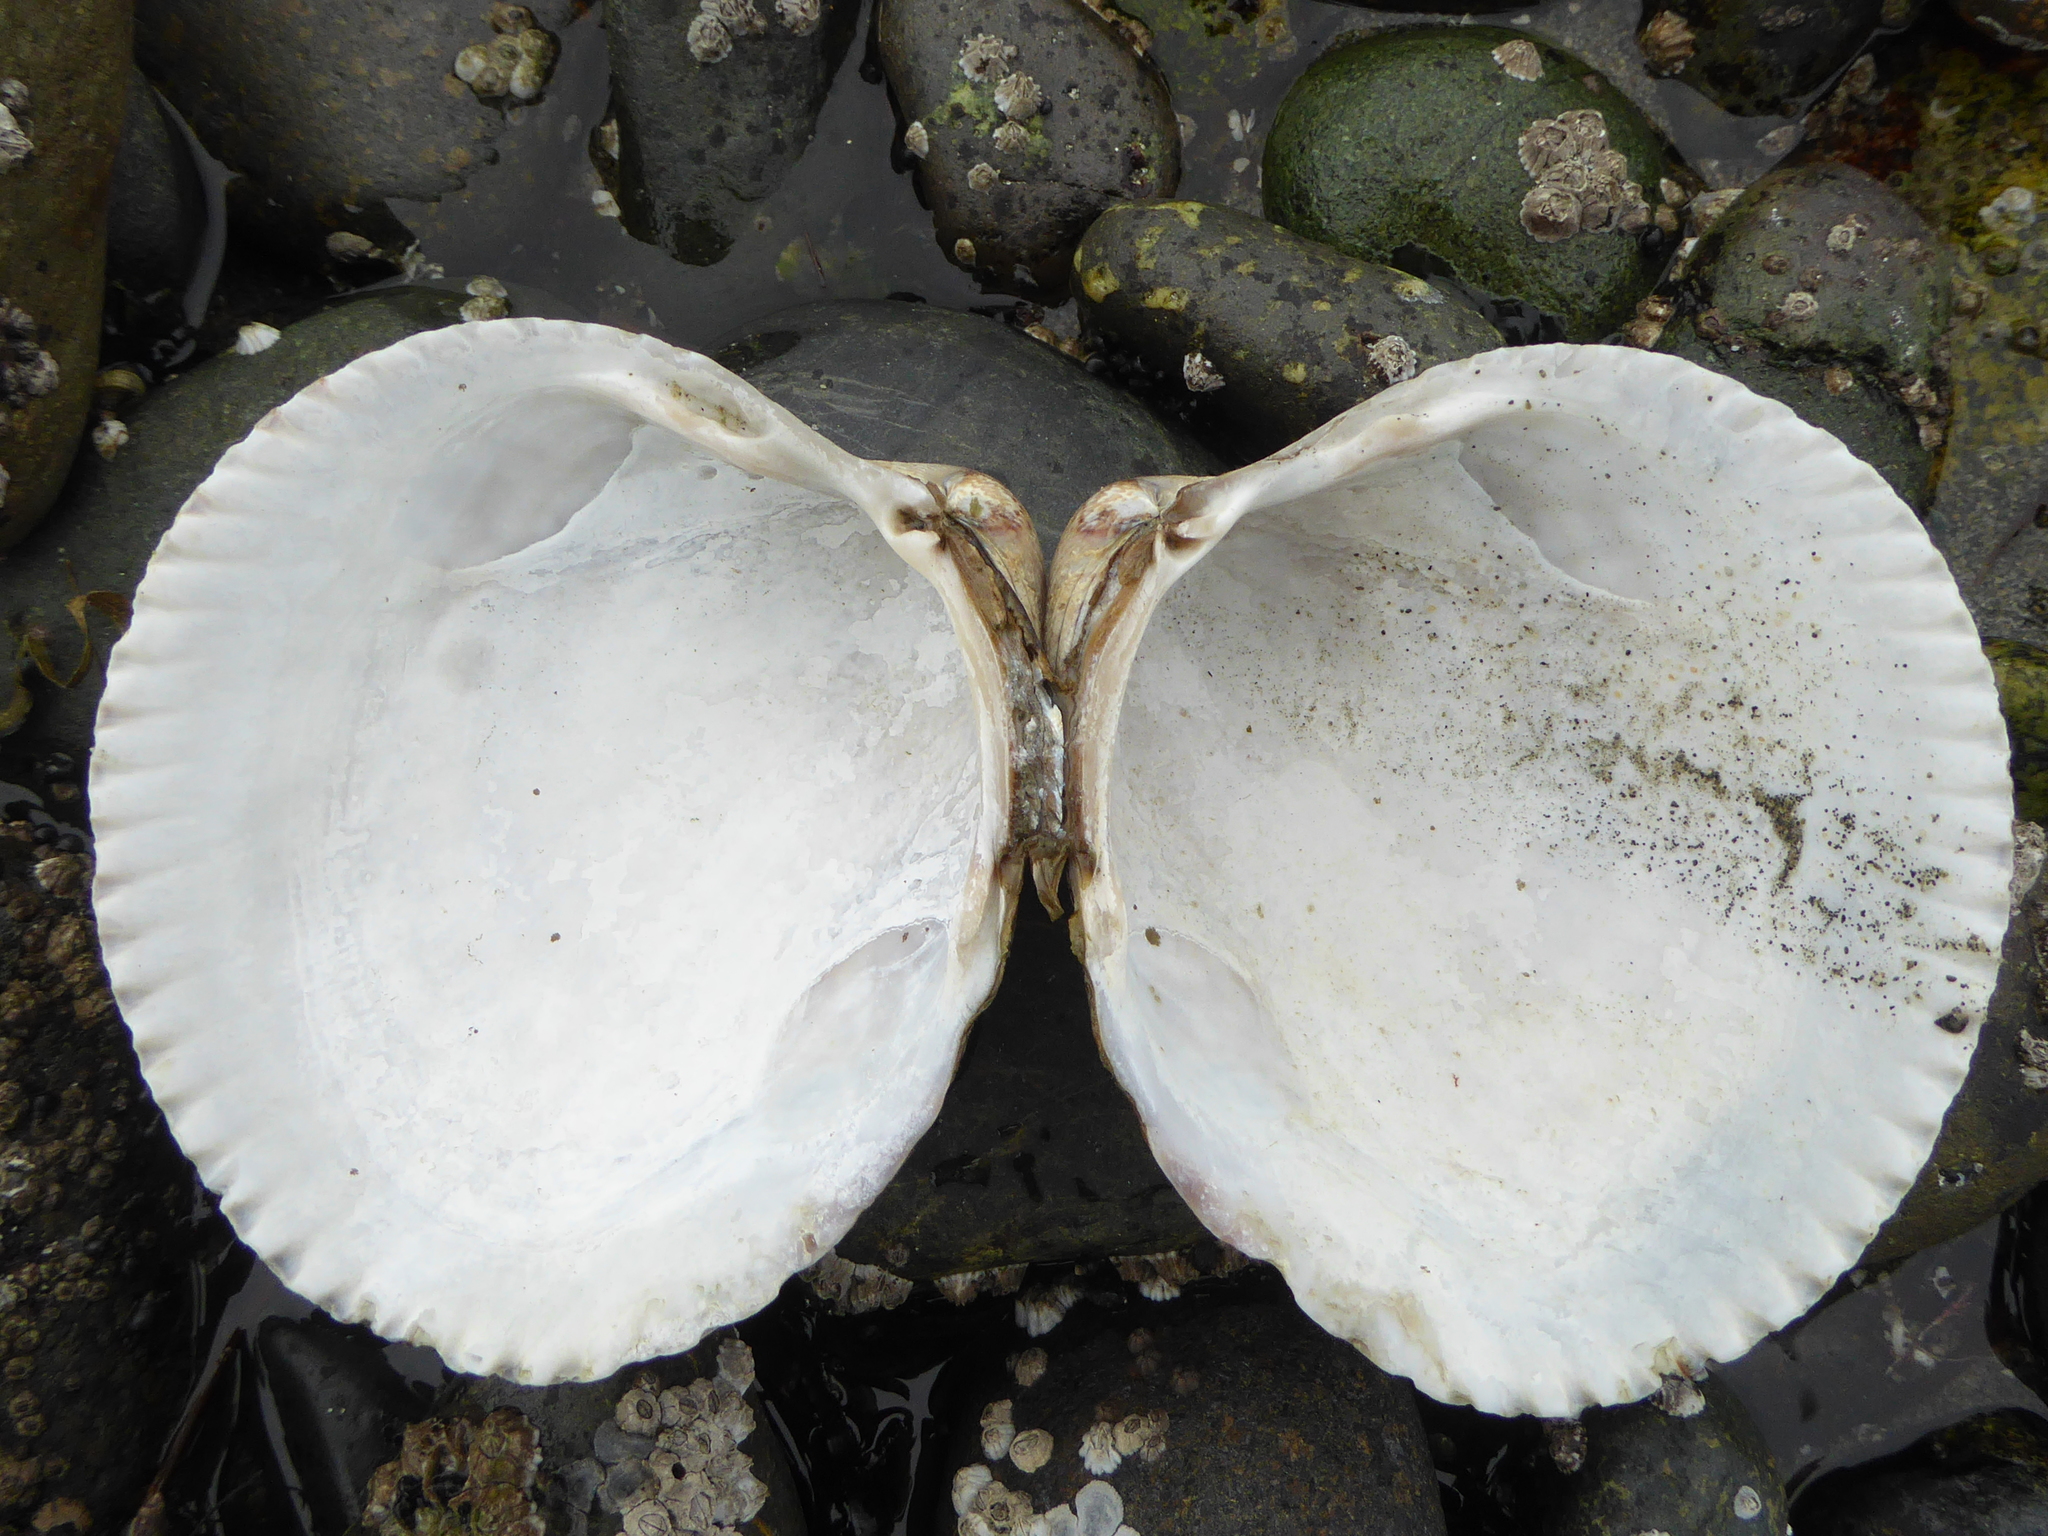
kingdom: Animalia
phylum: Mollusca
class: Bivalvia
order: Cardiida
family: Cardiidae
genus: Clinocardium
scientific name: Clinocardium nuttallii
